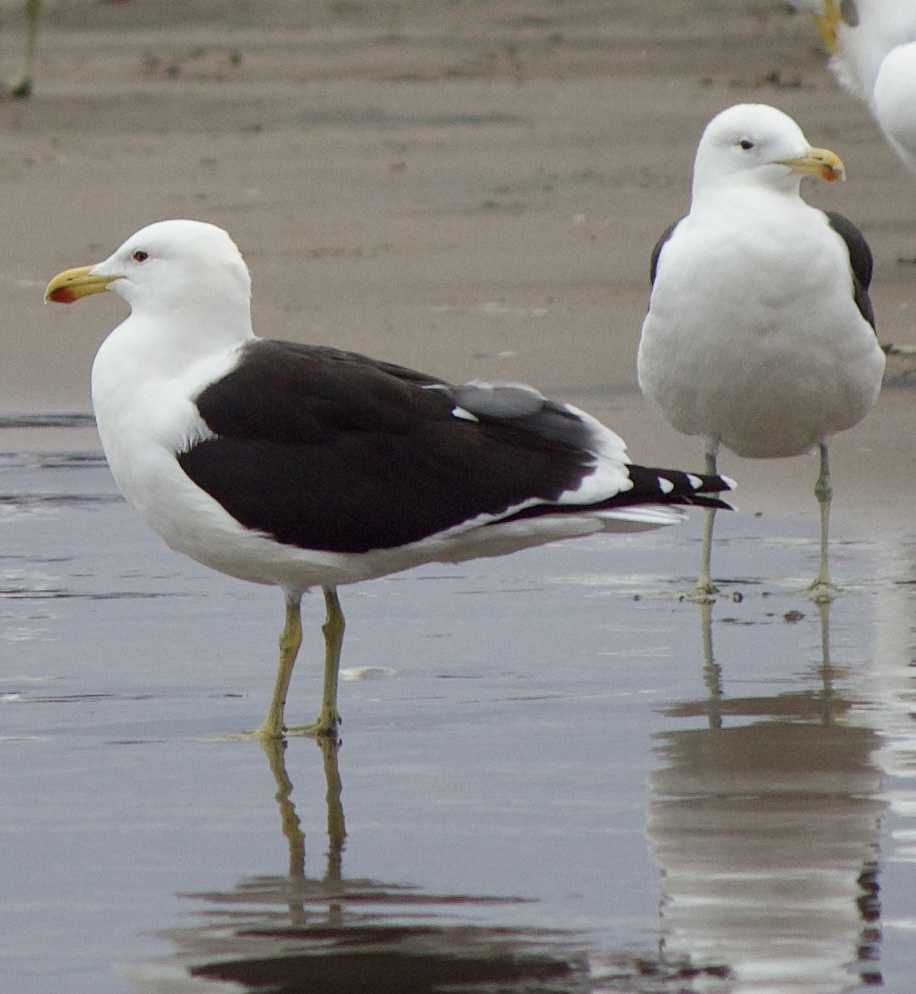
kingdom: Animalia
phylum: Chordata
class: Aves
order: Charadriiformes
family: Laridae
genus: Larus
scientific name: Larus dominicanus
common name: Kelp gull
